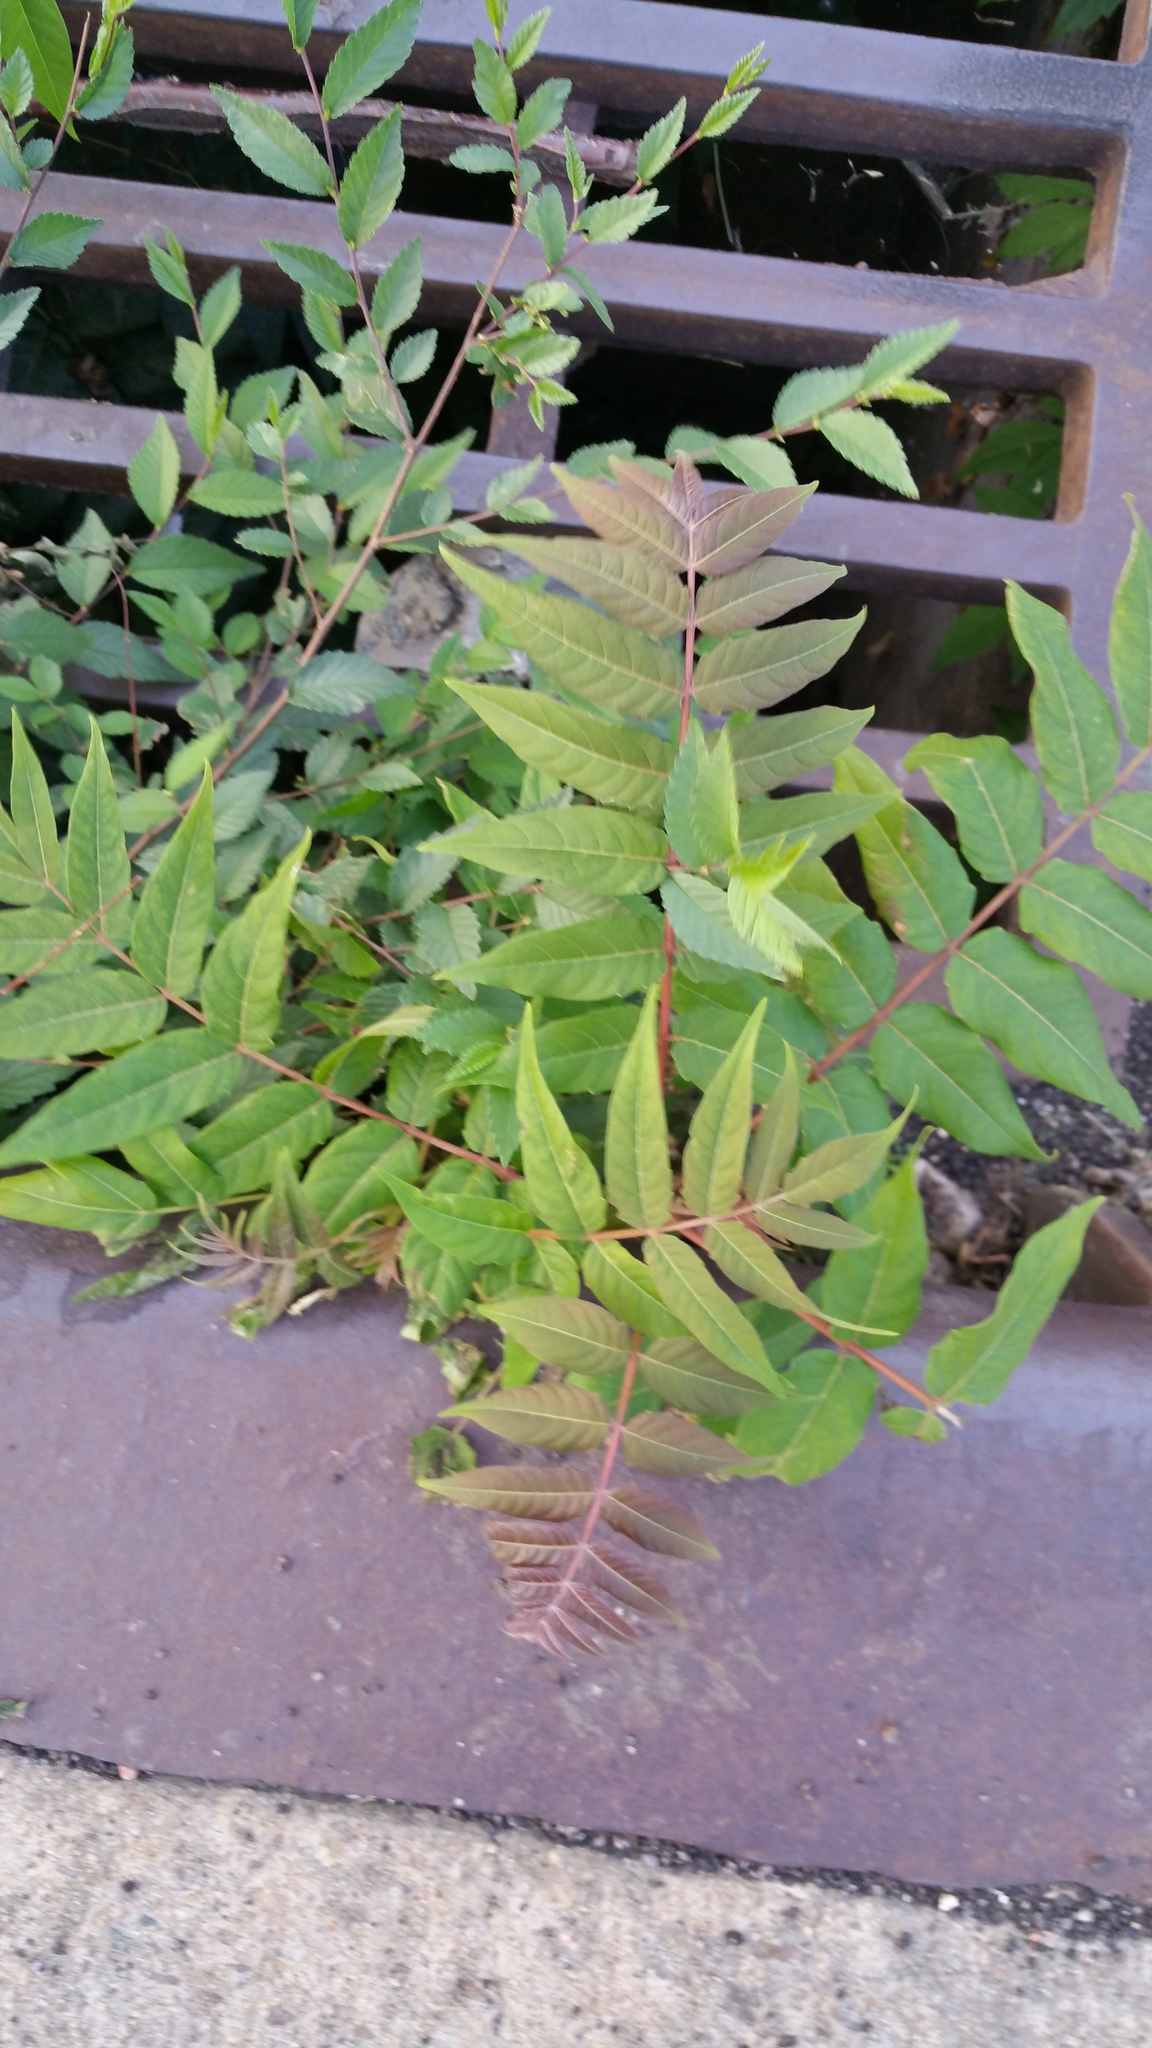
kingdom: Plantae
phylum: Tracheophyta
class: Magnoliopsida
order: Sapindales
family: Simaroubaceae
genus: Ailanthus
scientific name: Ailanthus altissima
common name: Tree-of-heaven
